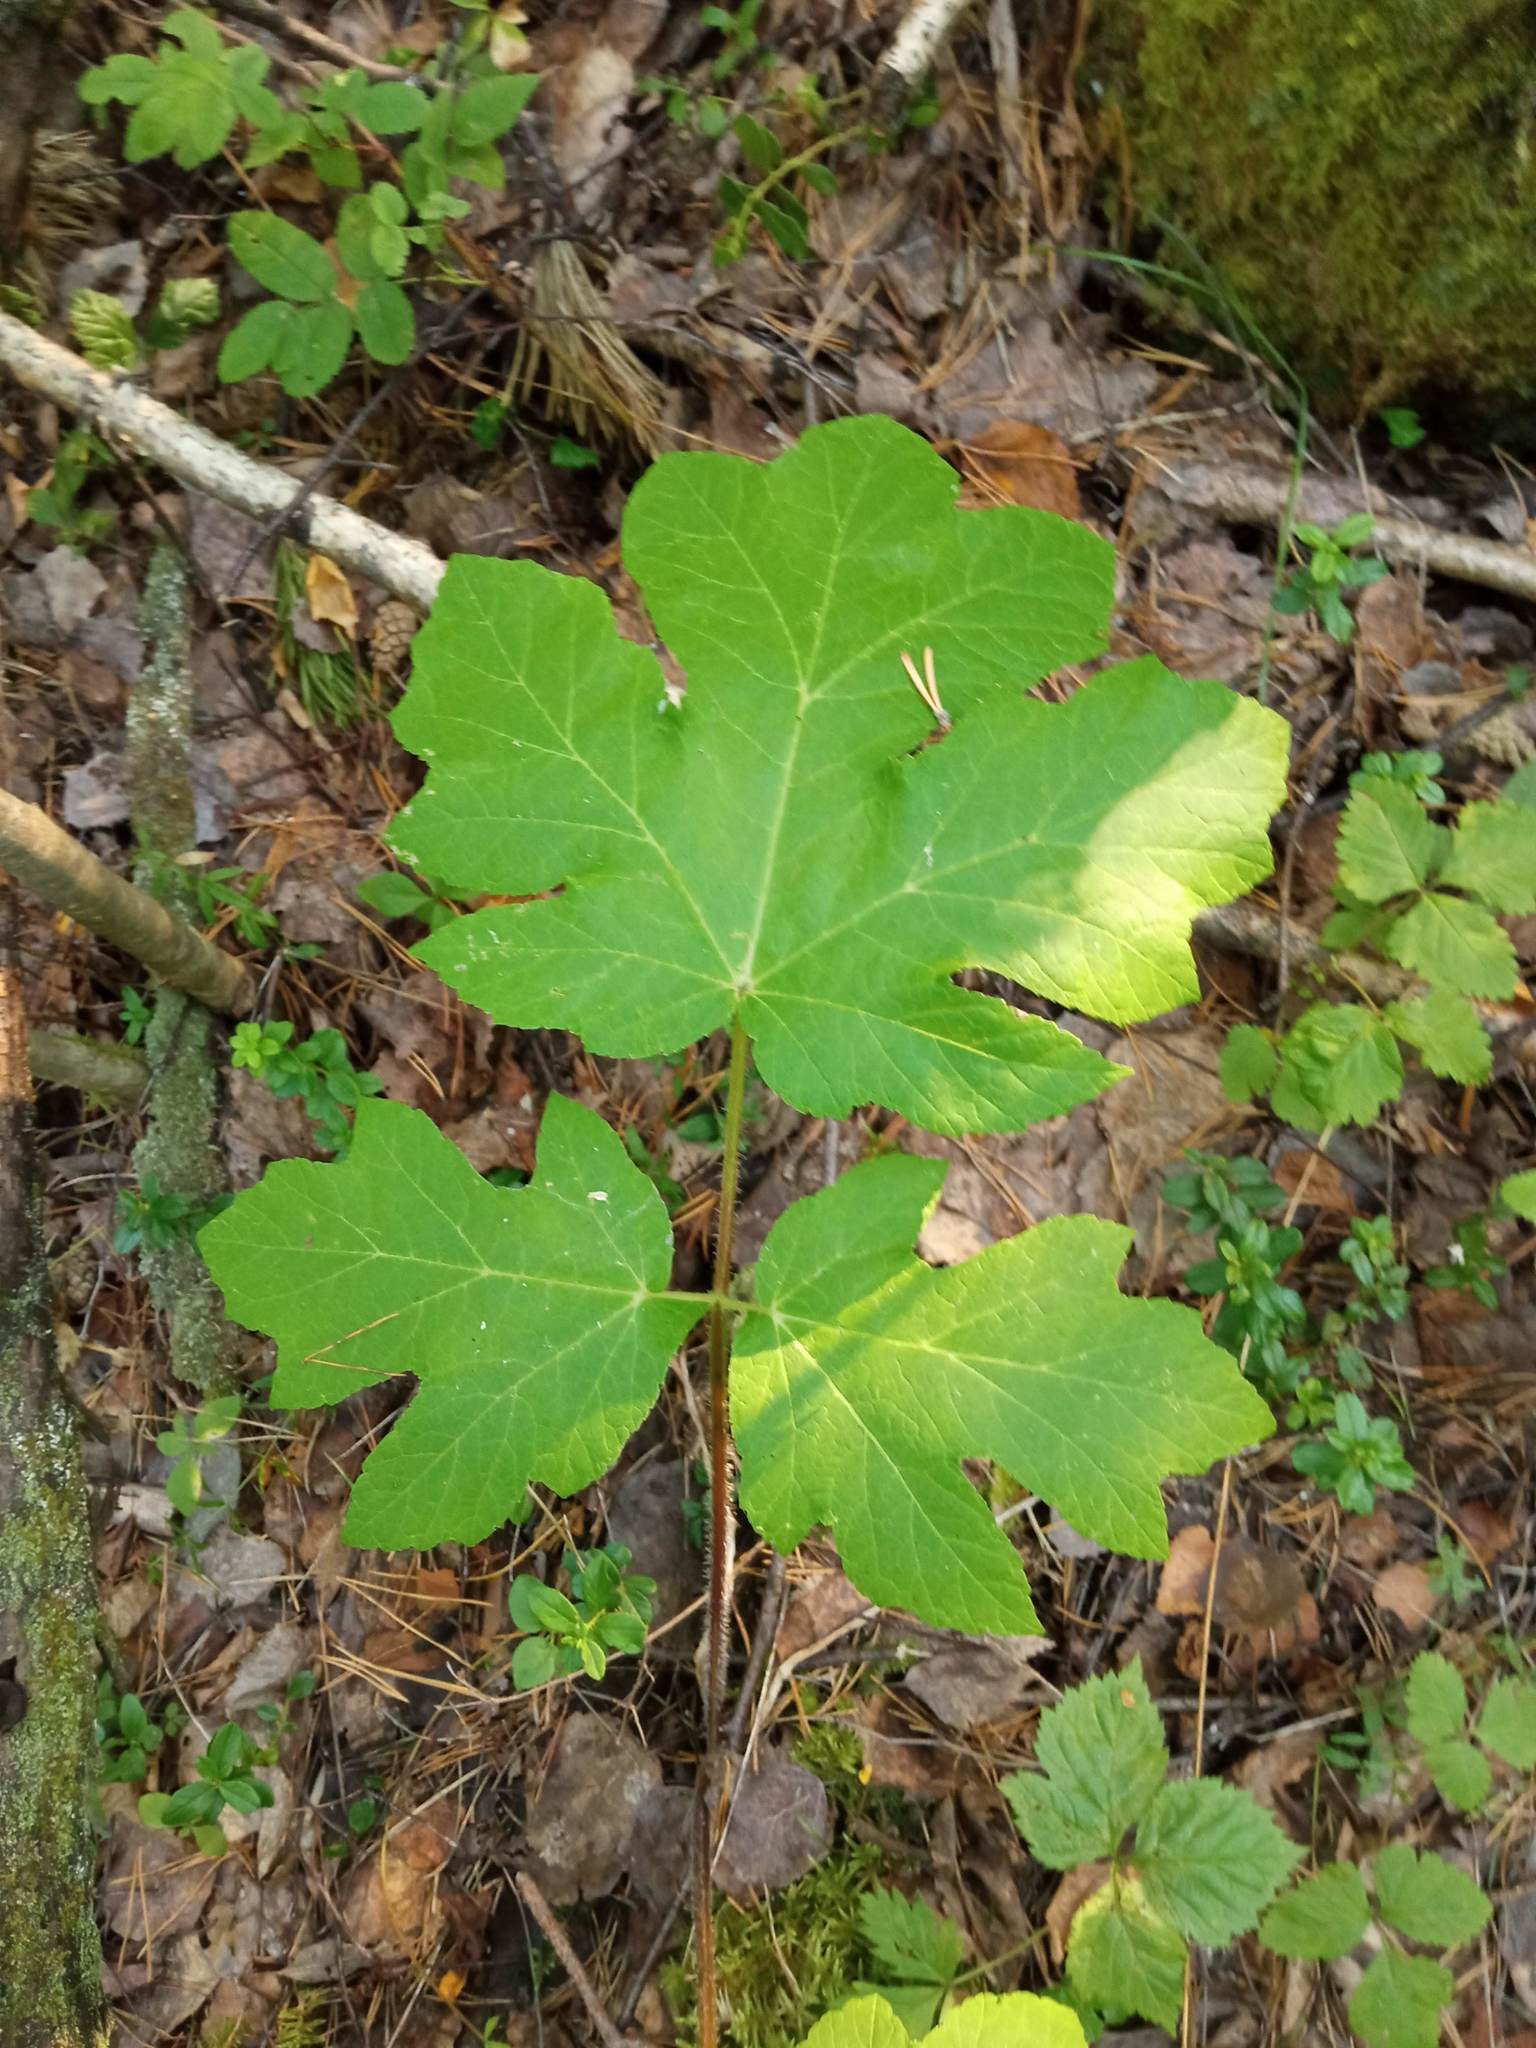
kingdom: Plantae
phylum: Tracheophyta
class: Magnoliopsida
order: Apiales
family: Apiaceae
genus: Heracleum
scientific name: Heracleum dissectum
